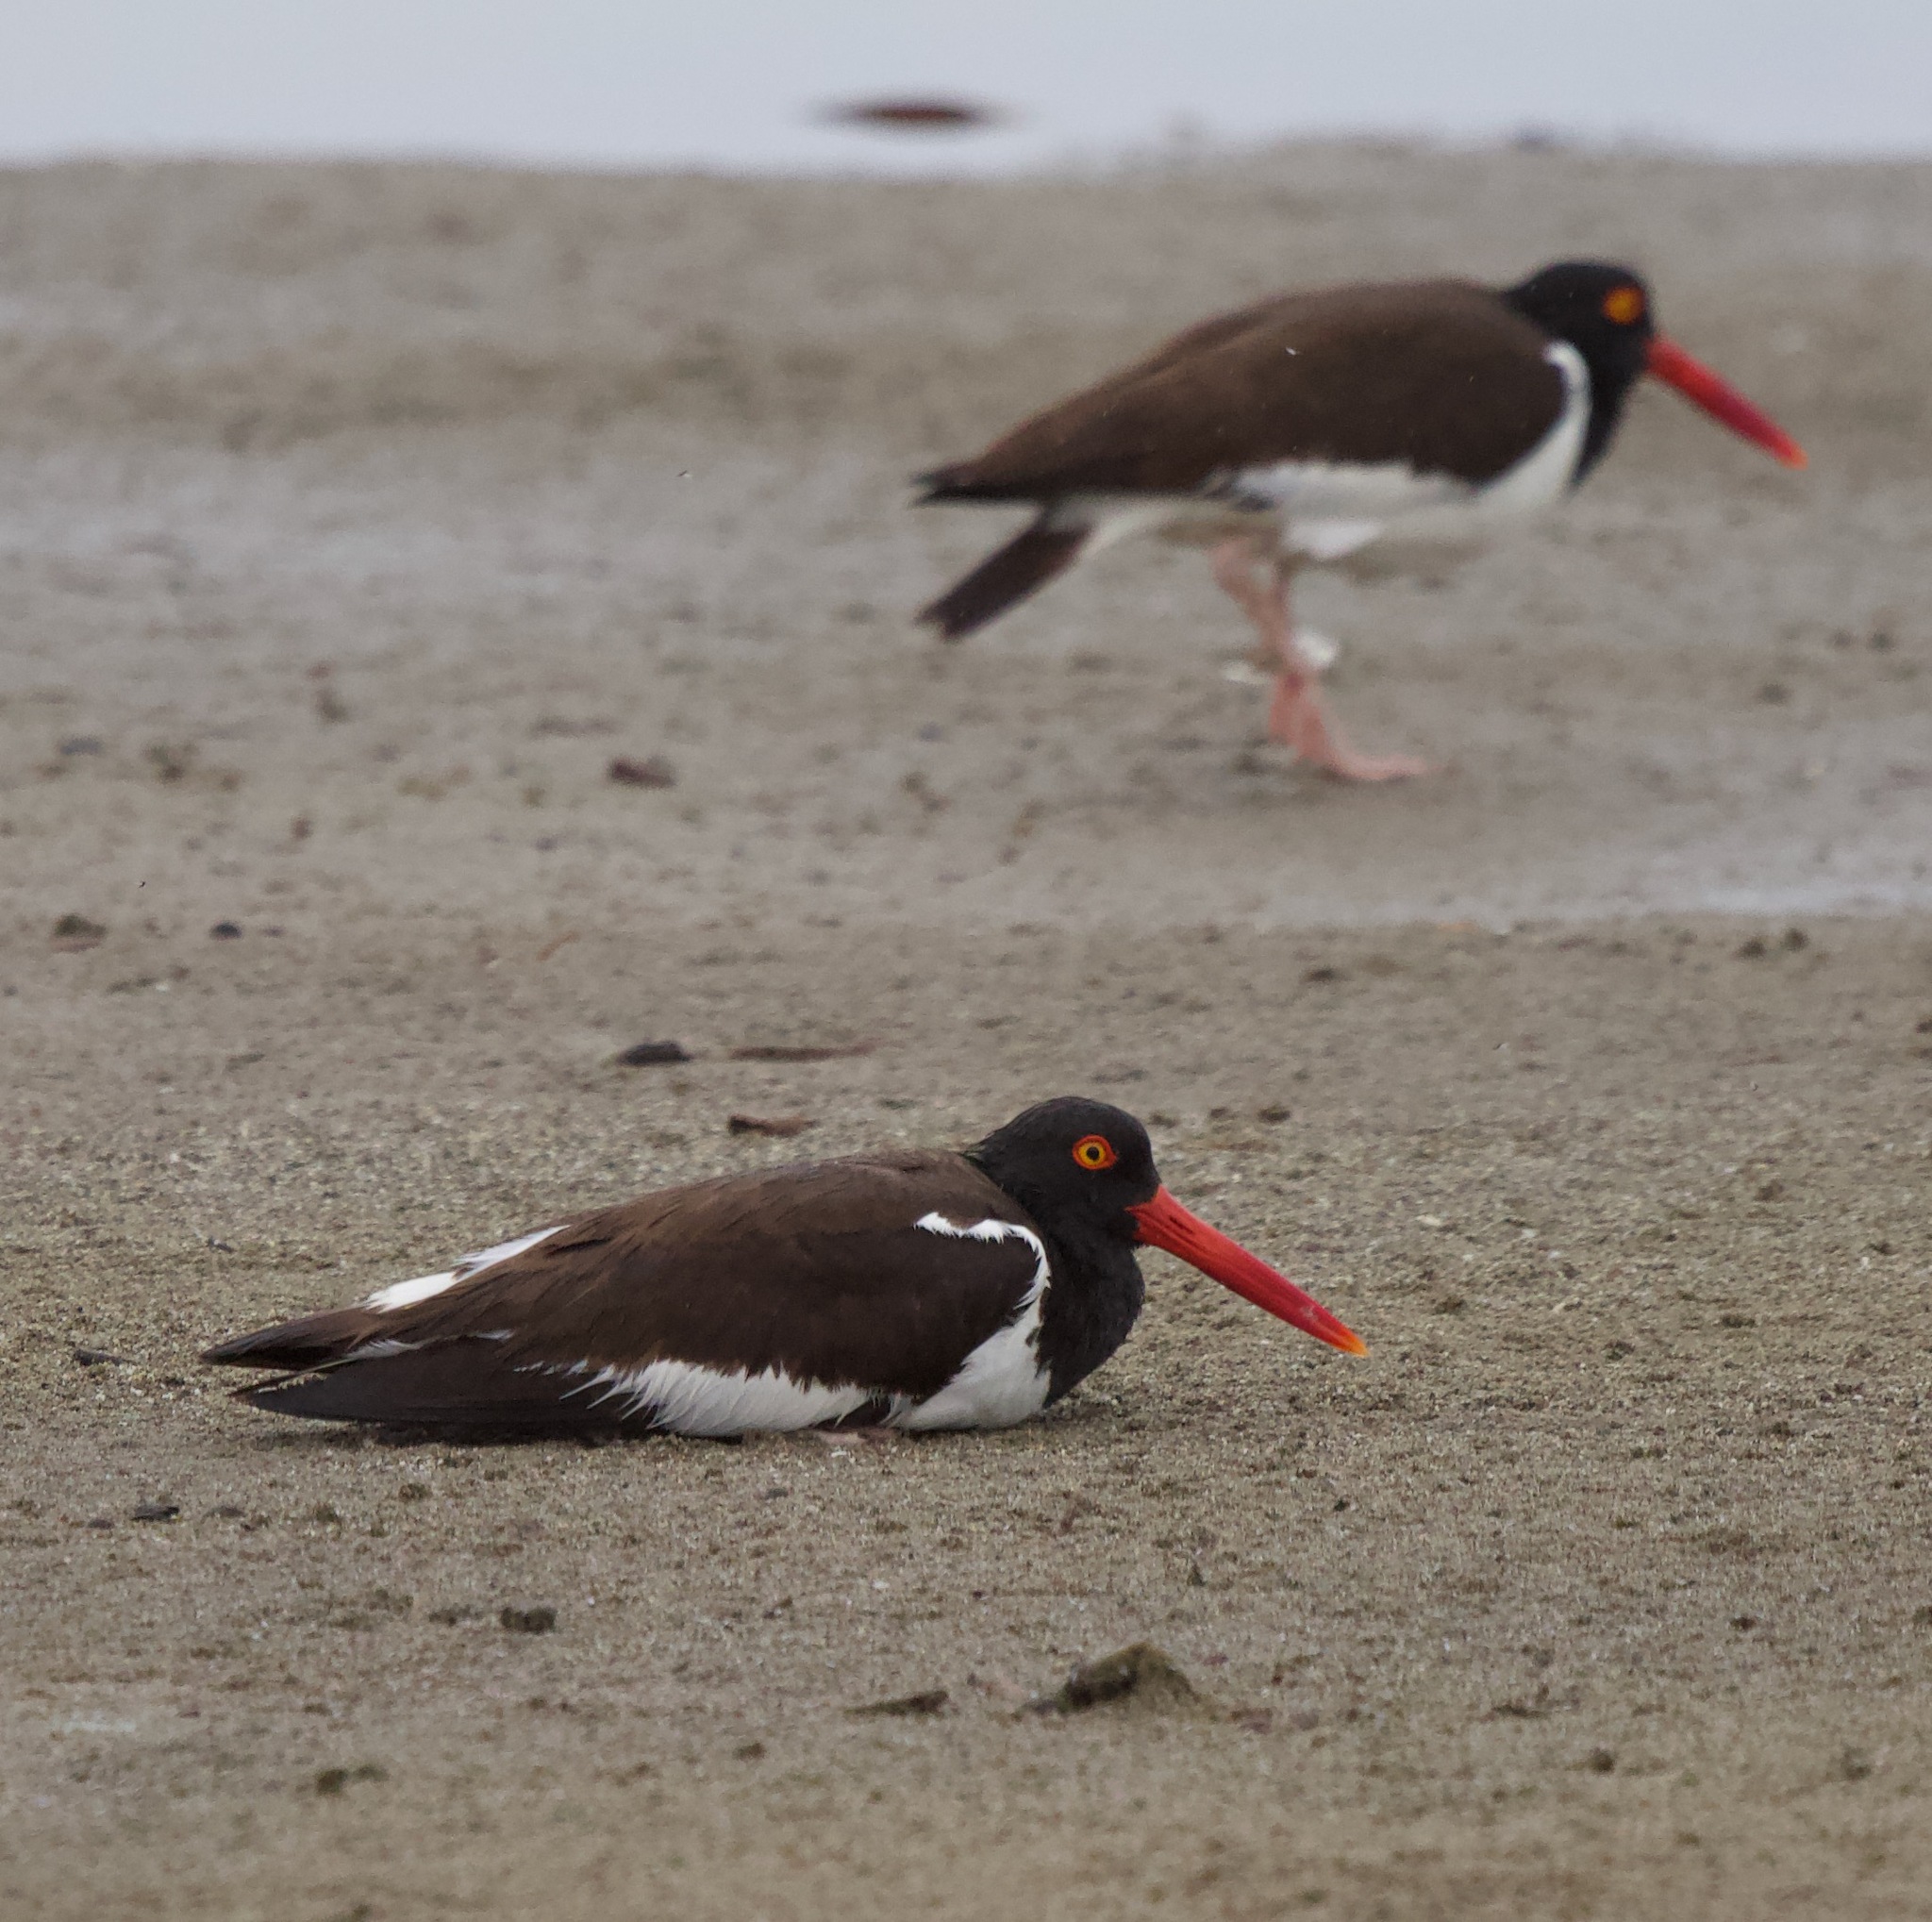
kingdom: Animalia
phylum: Chordata
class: Aves
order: Charadriiformes
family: Haematopodidae
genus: Haematopus
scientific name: Haematopus palliatus
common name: American oystercatcher
